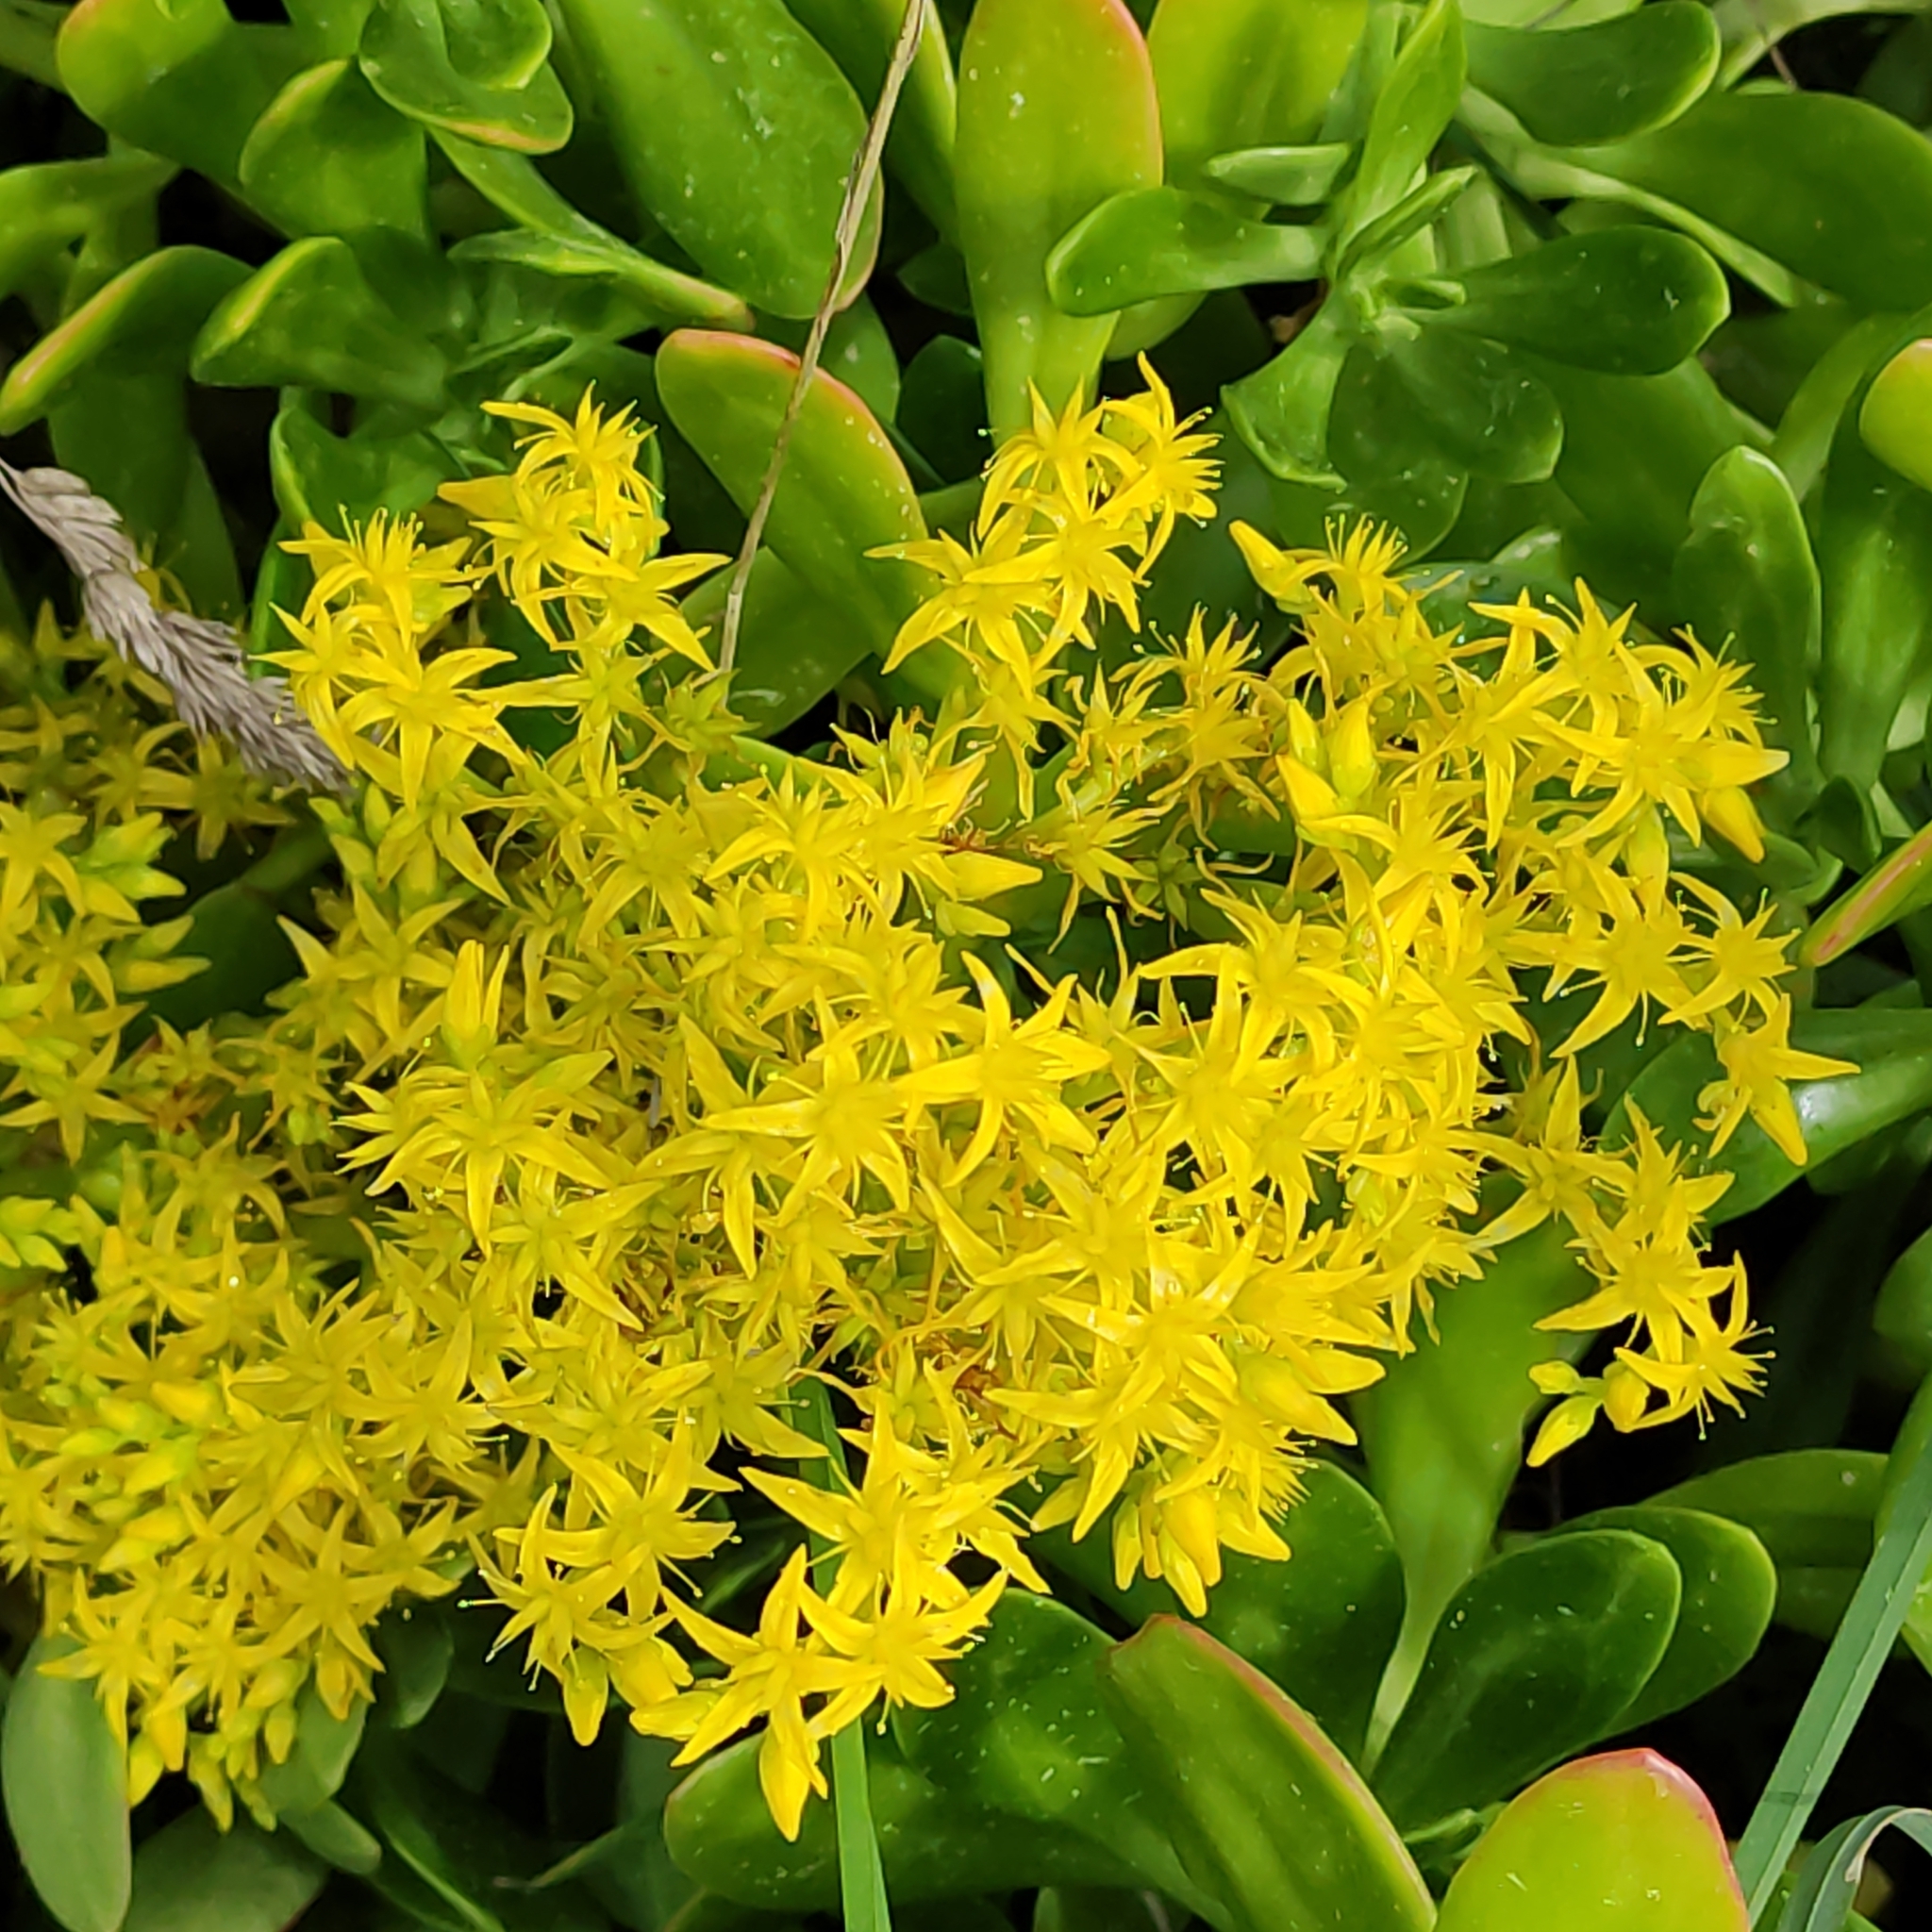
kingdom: Plantae
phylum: Tracheophyta
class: Magnoliopsida
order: Saxifragales
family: Crassulaceae
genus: Sedum
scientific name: Sedum praealtum
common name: Greater mexican-stonecrop
